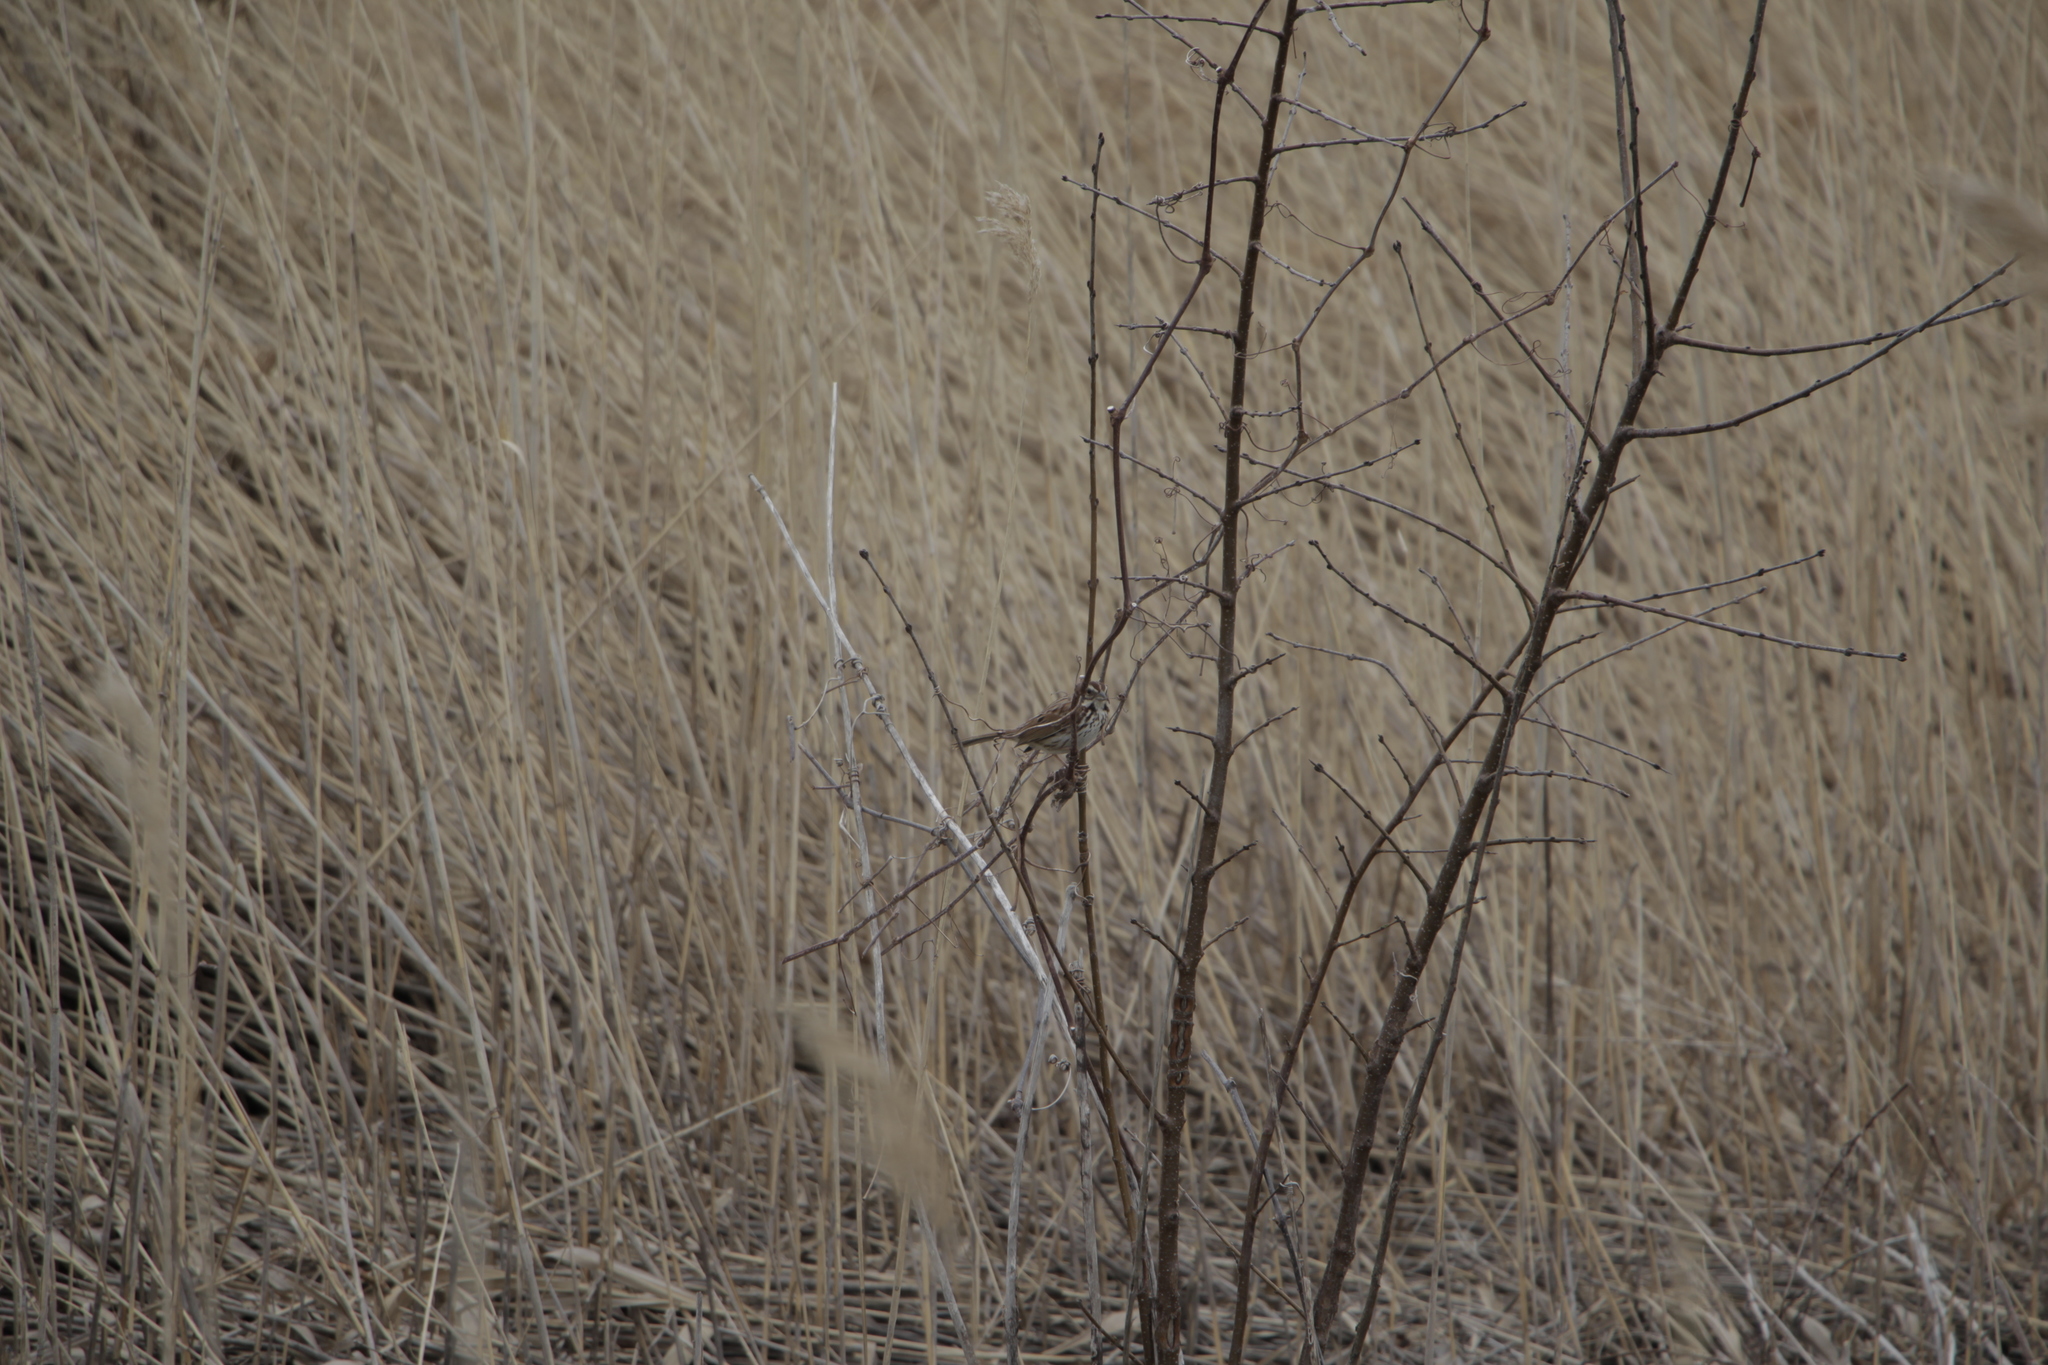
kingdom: Animalia
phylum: Chordata
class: Aves
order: Passeriformes
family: Passerellidae
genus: Melospiza
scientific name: Melospiza melodia
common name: Song sparrow
